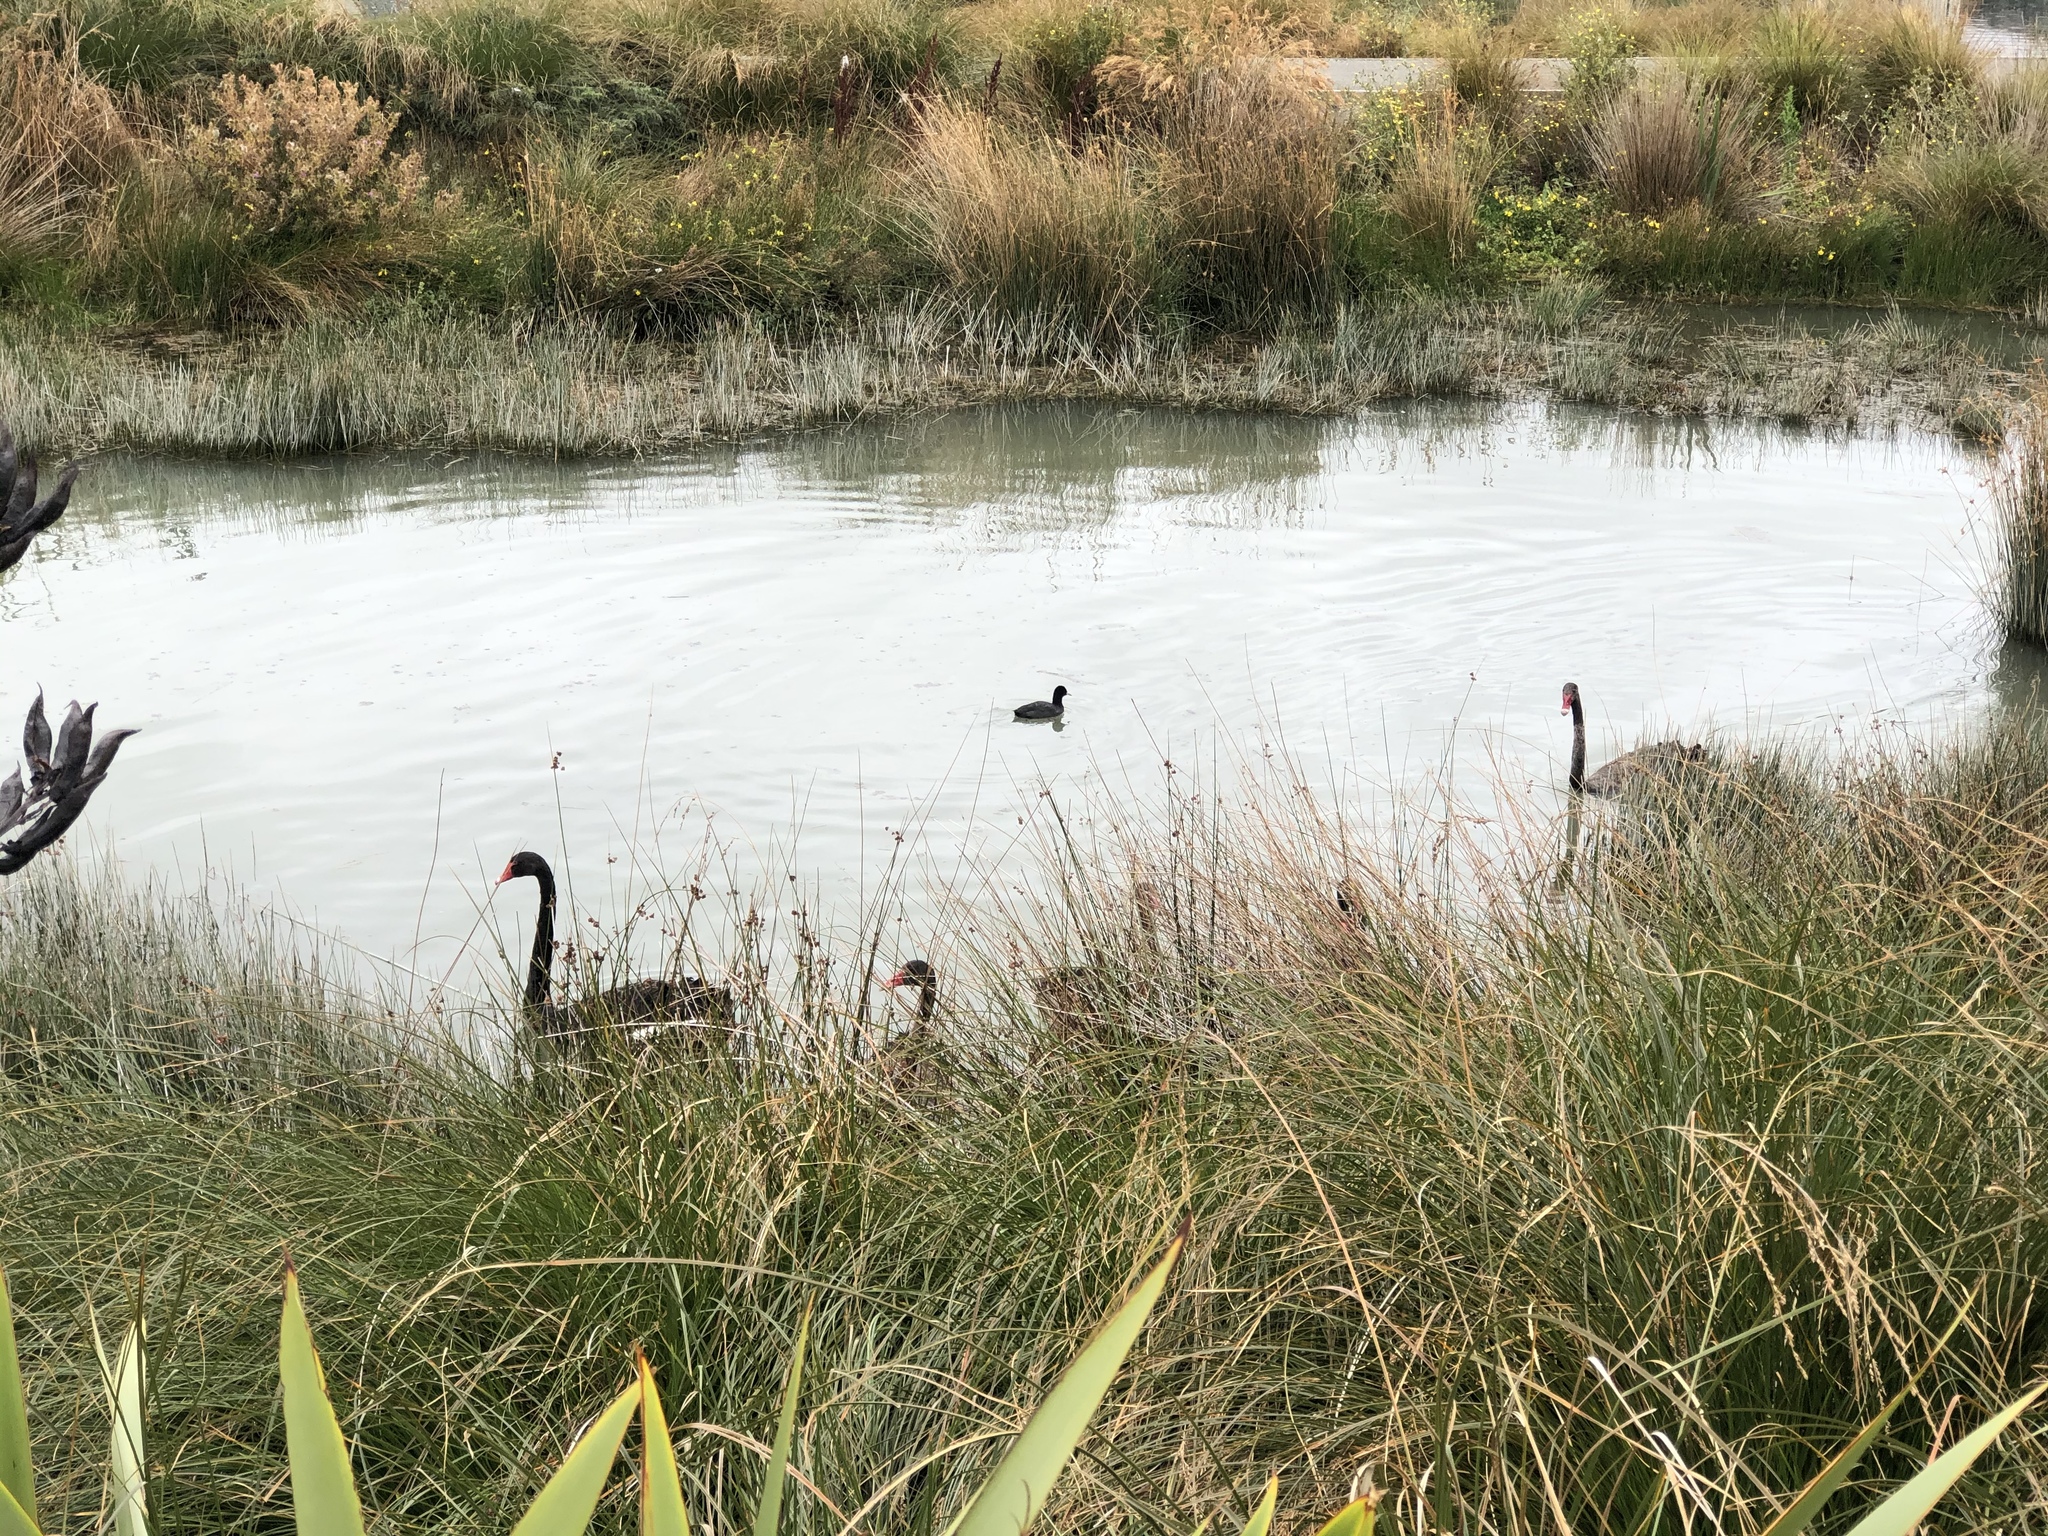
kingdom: Animalia
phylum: Chordata
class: Aves
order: Gruiformes
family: Rallidae
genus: Fulica
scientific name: Fulica atra
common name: Eurasian coot
